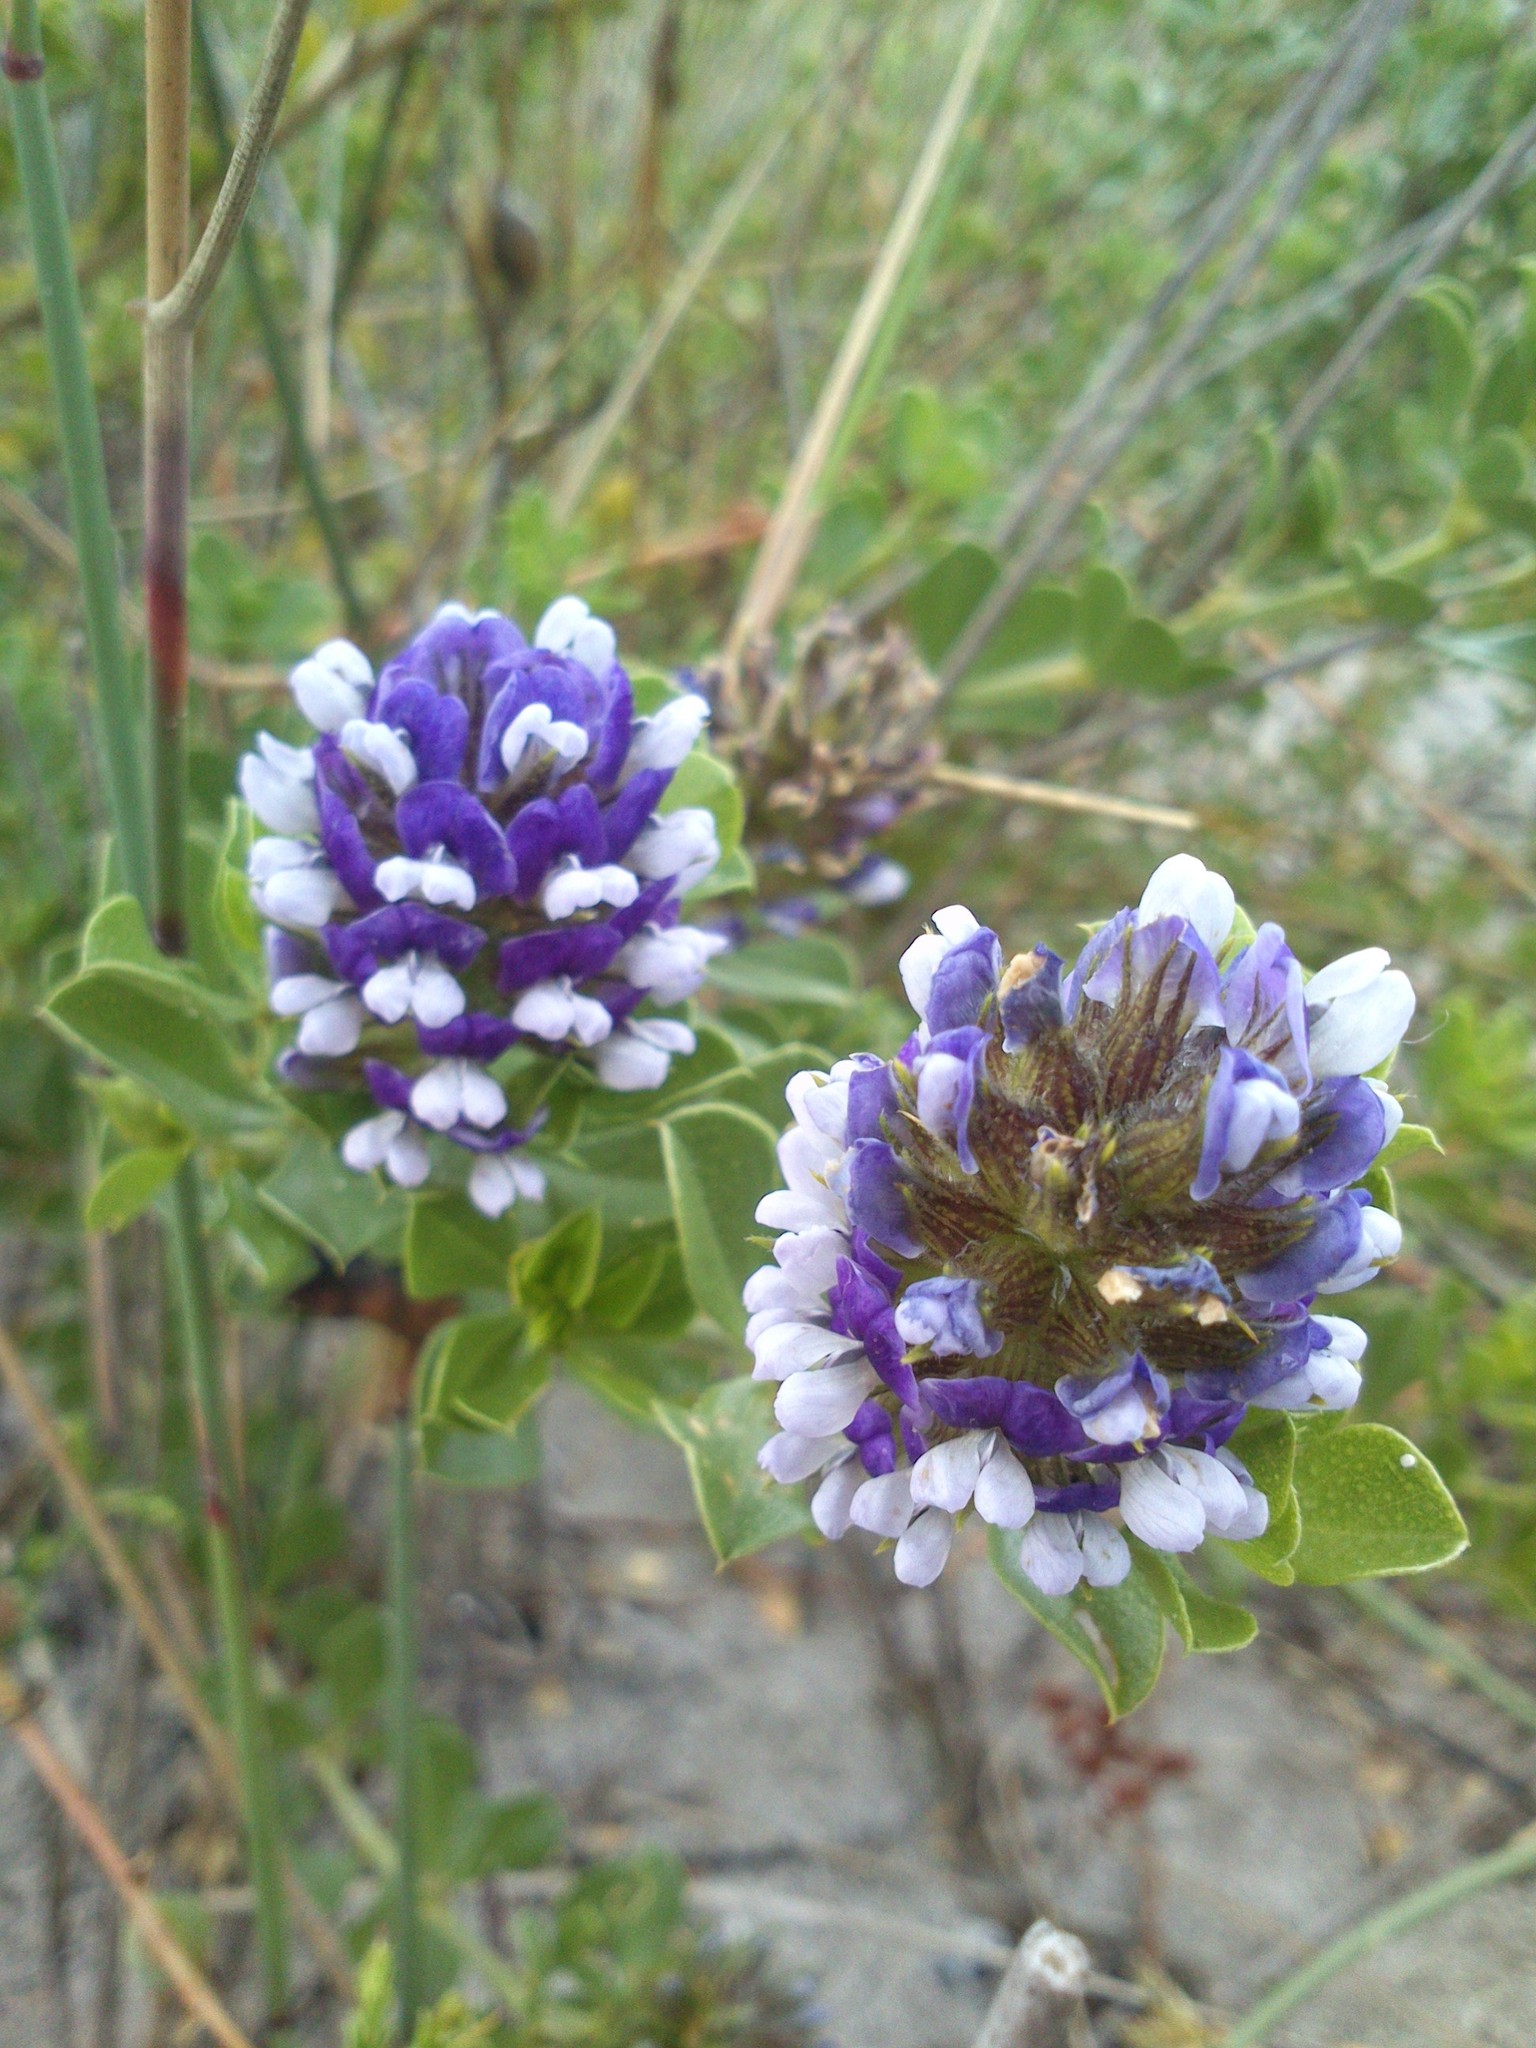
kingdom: Plantae
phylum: Tracheophyta
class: Magnoliopsida
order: Fabales
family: Fabaceae
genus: Psoralea
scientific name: Psoralea bracteolata
